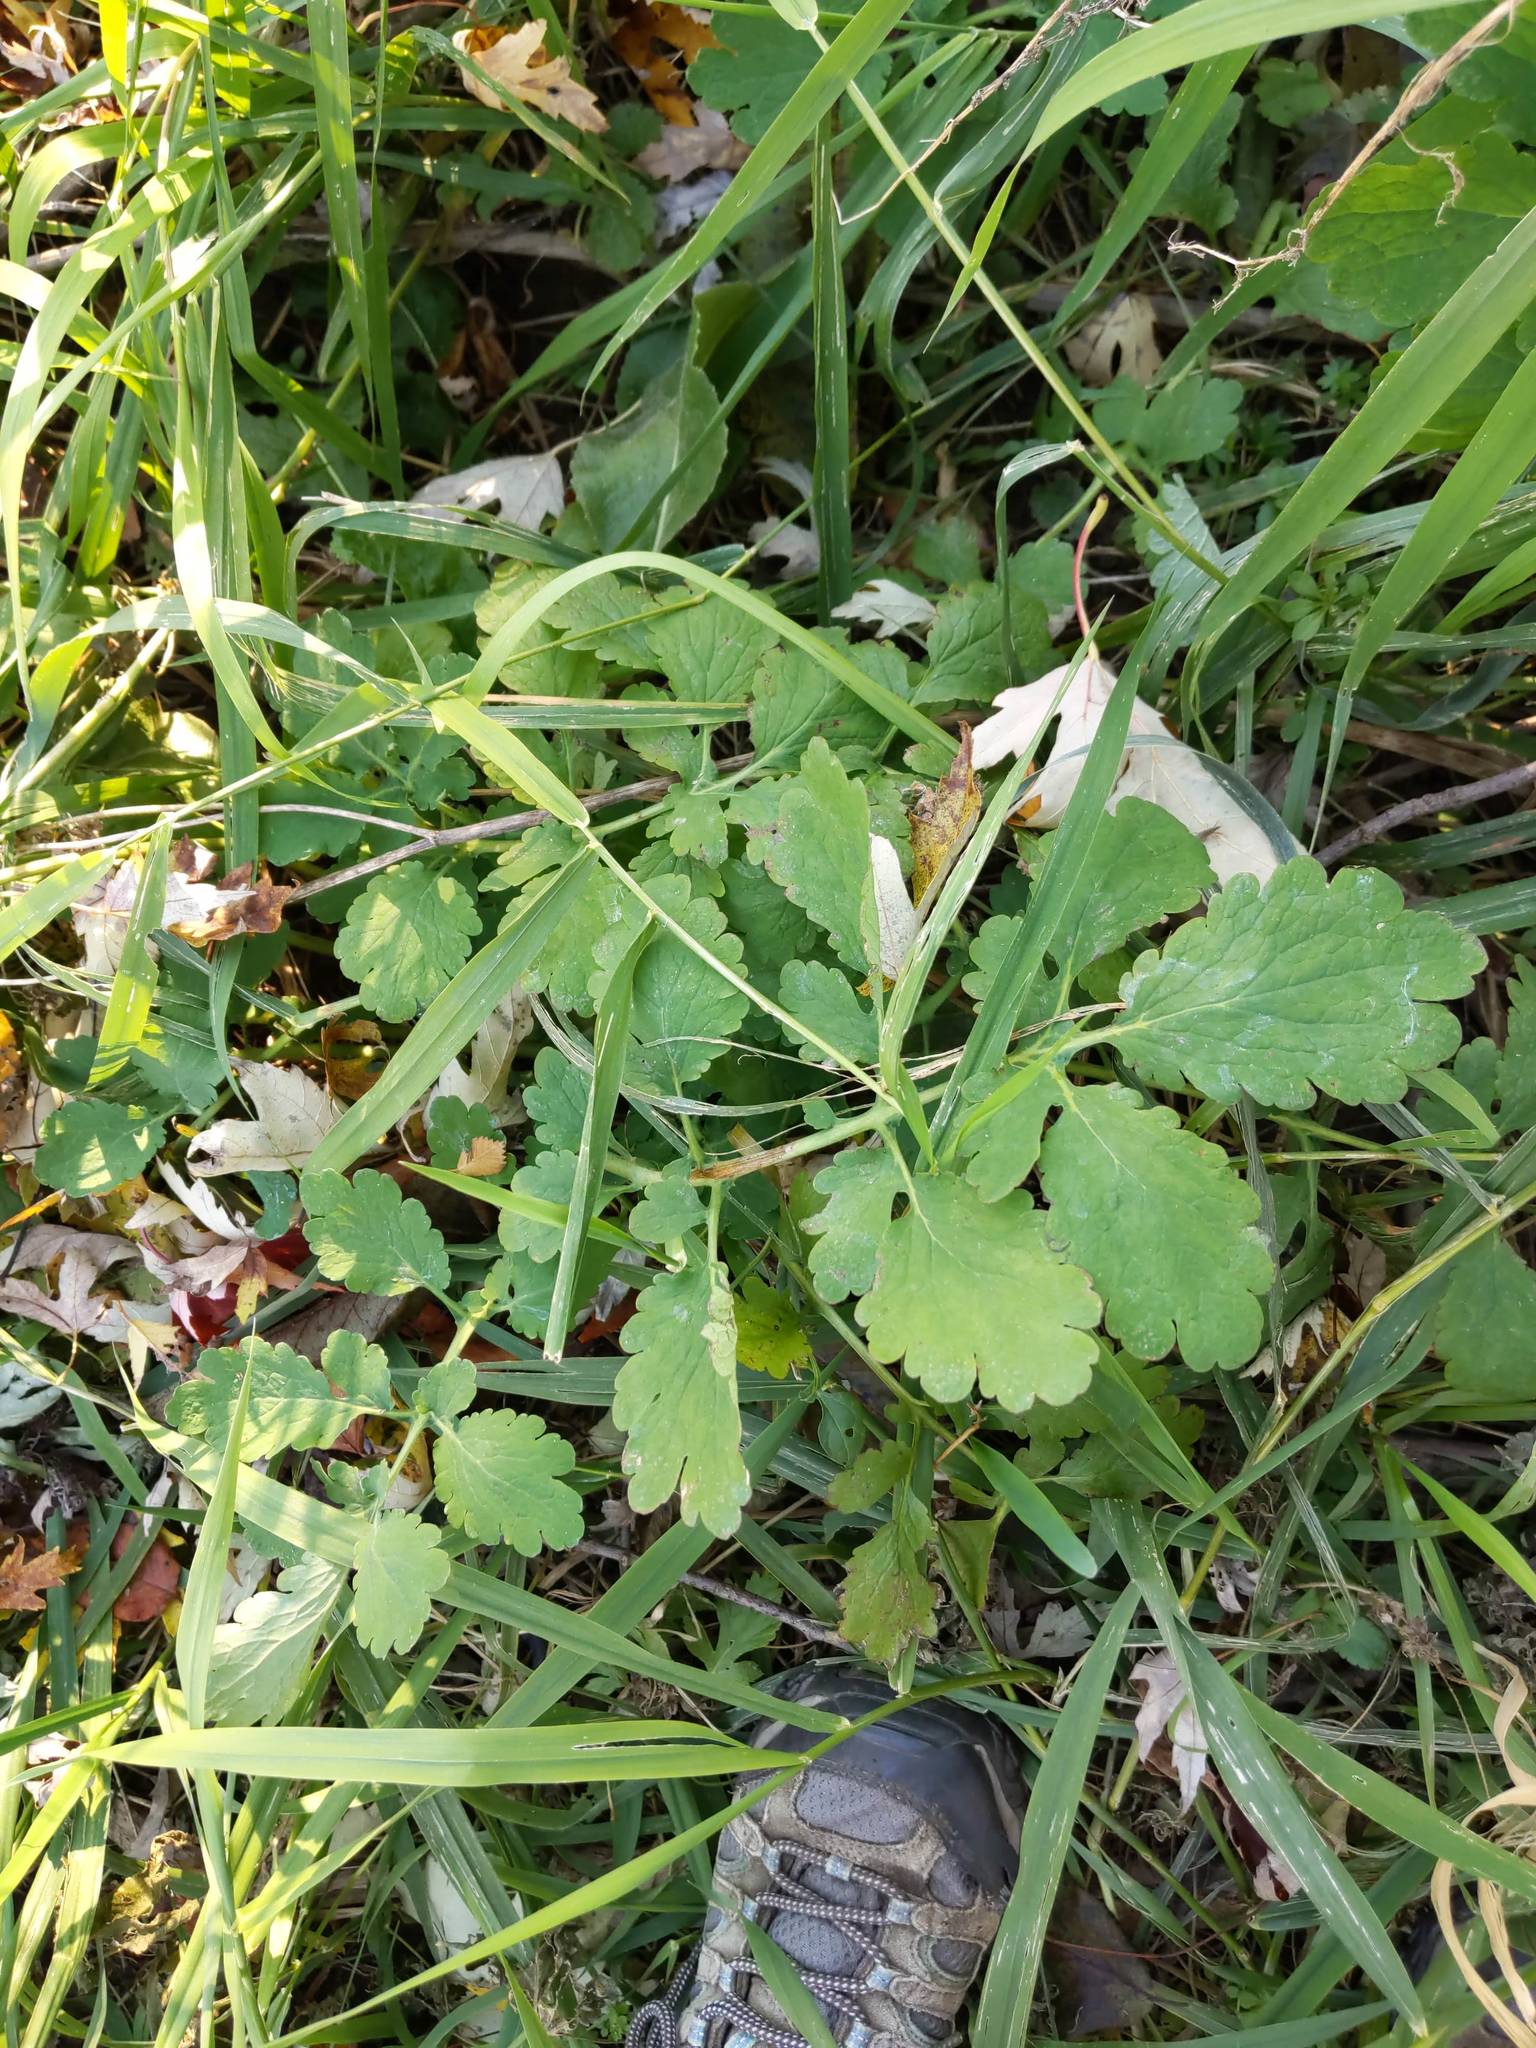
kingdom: Plantae
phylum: Tracheophyta
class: Magnoliopsida
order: Ranunculales
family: Papaveraceae
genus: Chelidonium
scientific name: Chelidonium majus
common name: Greater celandine
